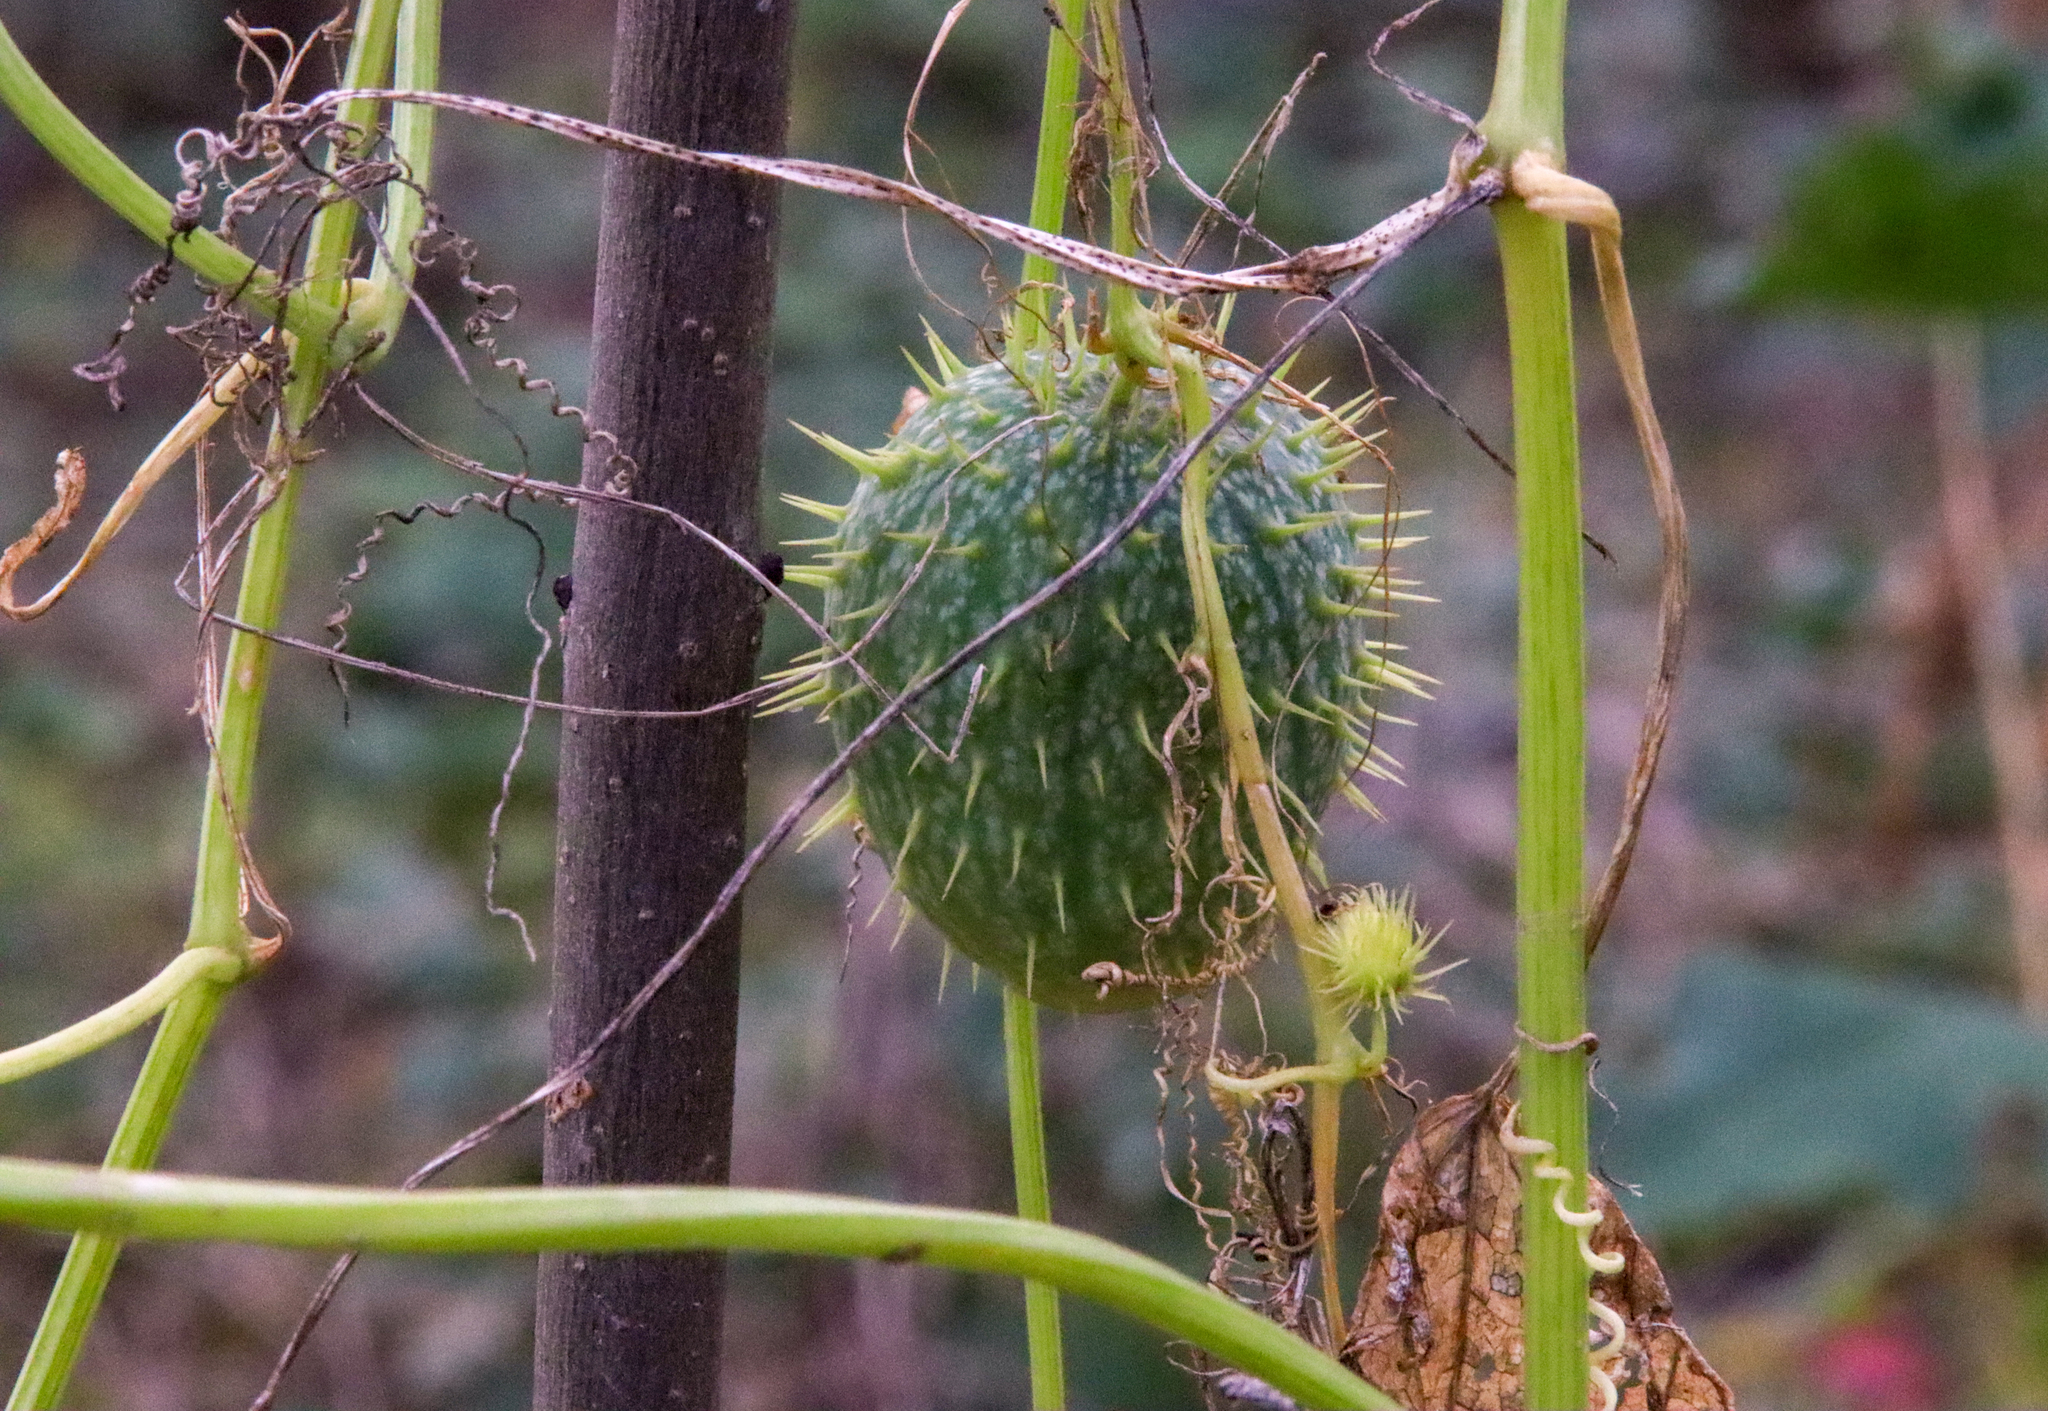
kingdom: Plantae
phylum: Tracheophyta
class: Magnoliopsida
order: Cucurbitales
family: Cucurbitaceae
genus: Echinocystis
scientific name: Echinocystis lobata
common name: Wild cucumber
